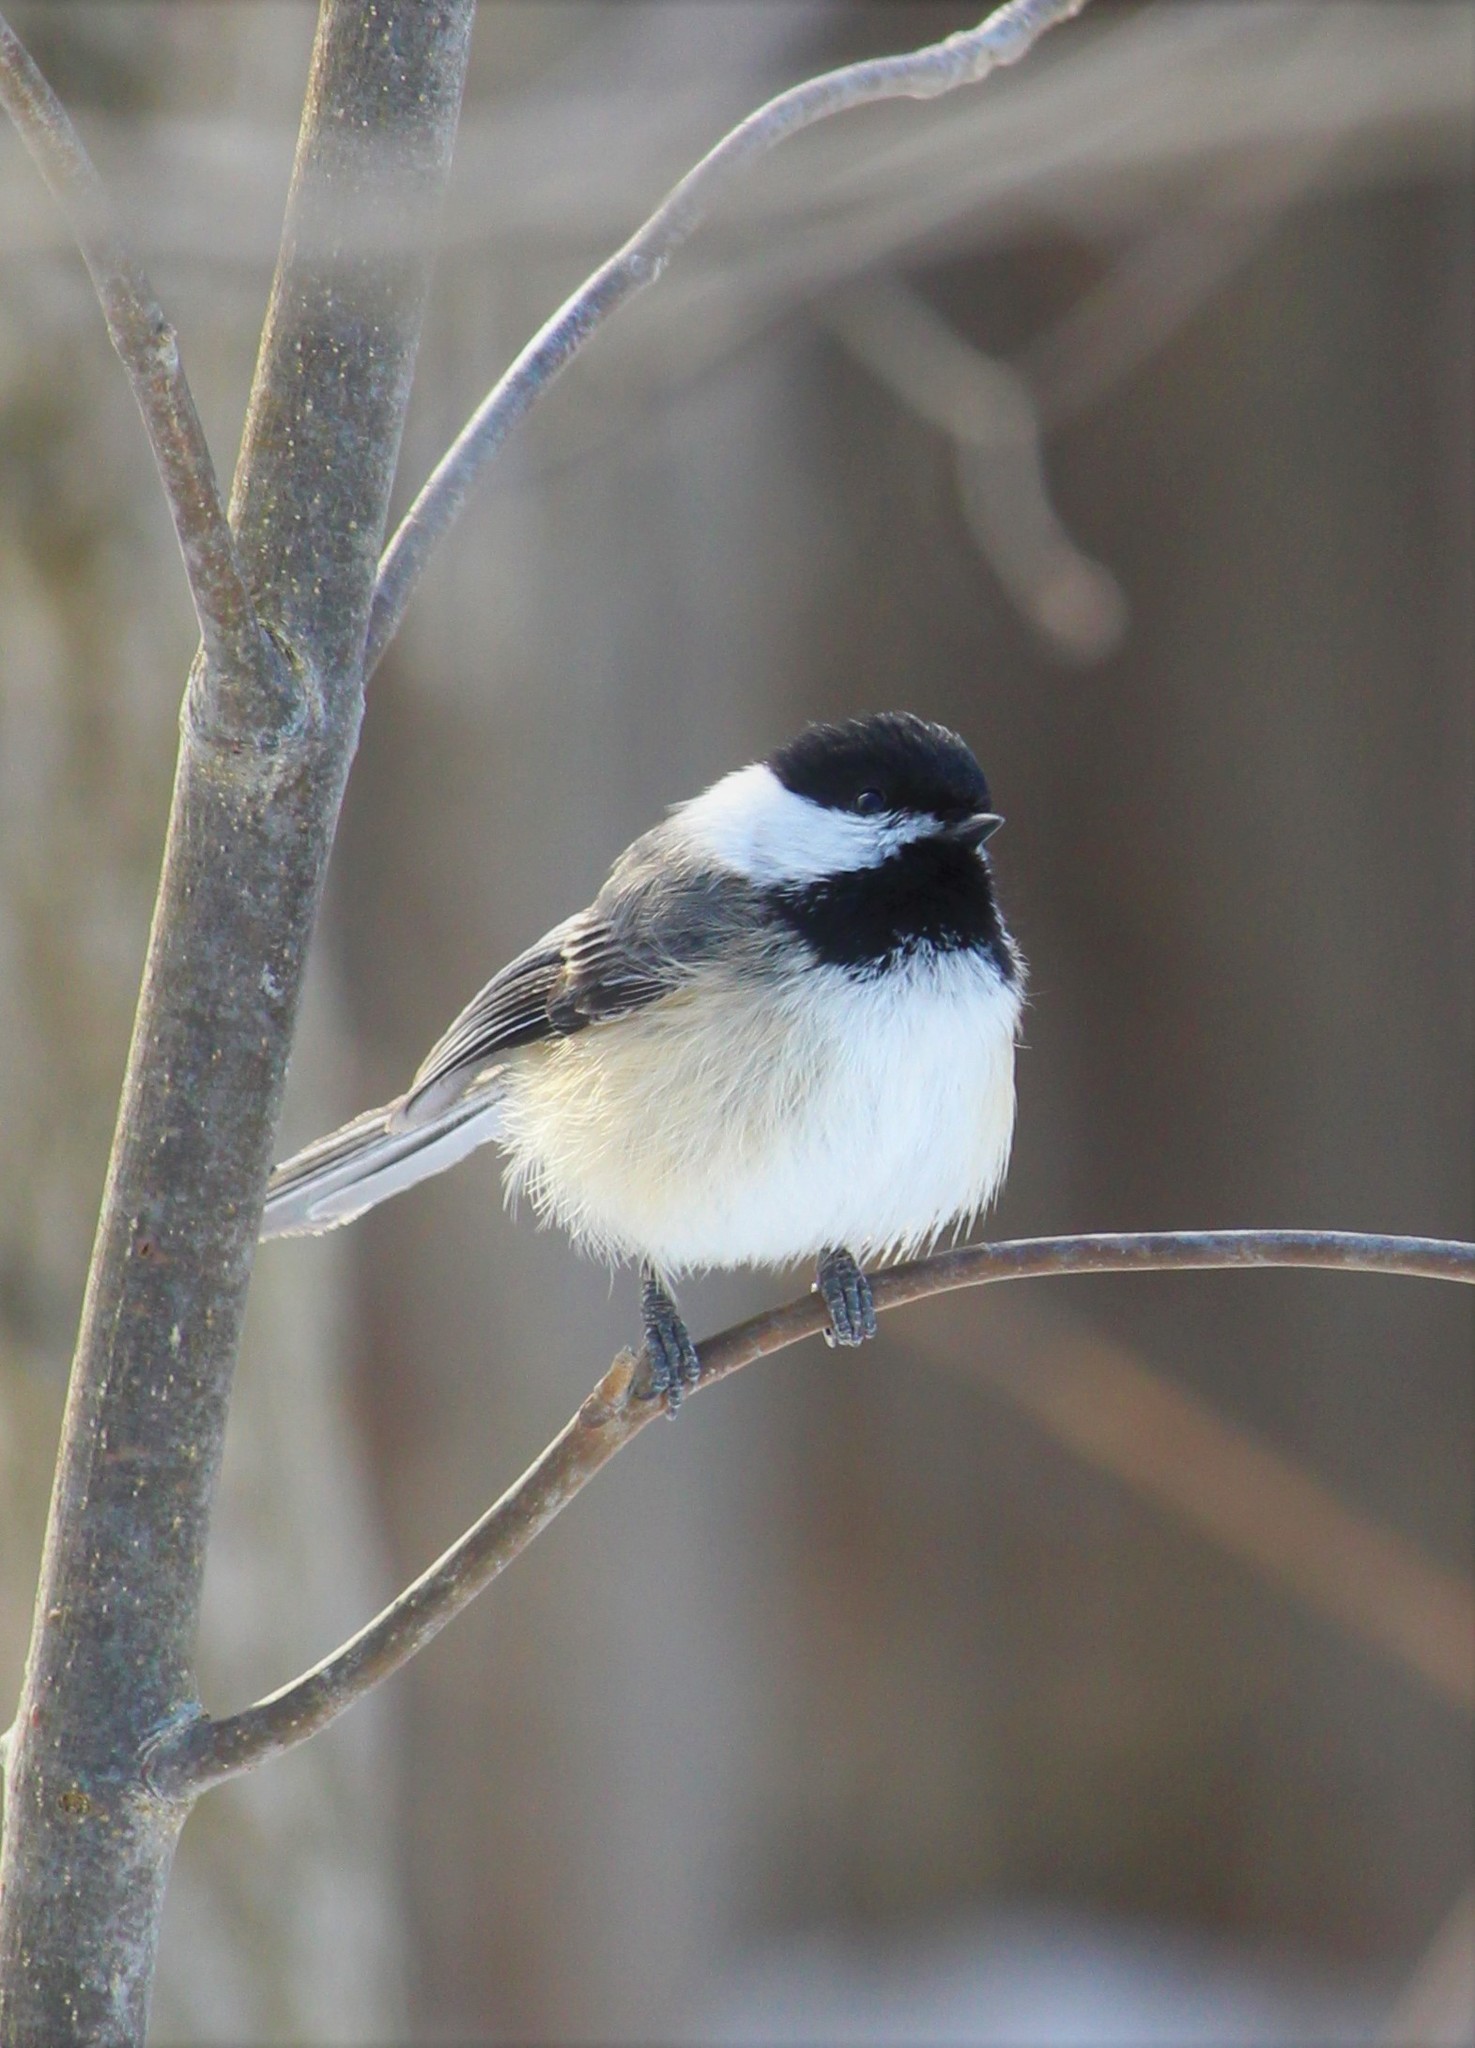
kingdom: Animalia
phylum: Chordata
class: Aves
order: Passeriformes
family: Paridae
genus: Poecile
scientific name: Poecile atricapillus
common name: Black-capped chickadee
